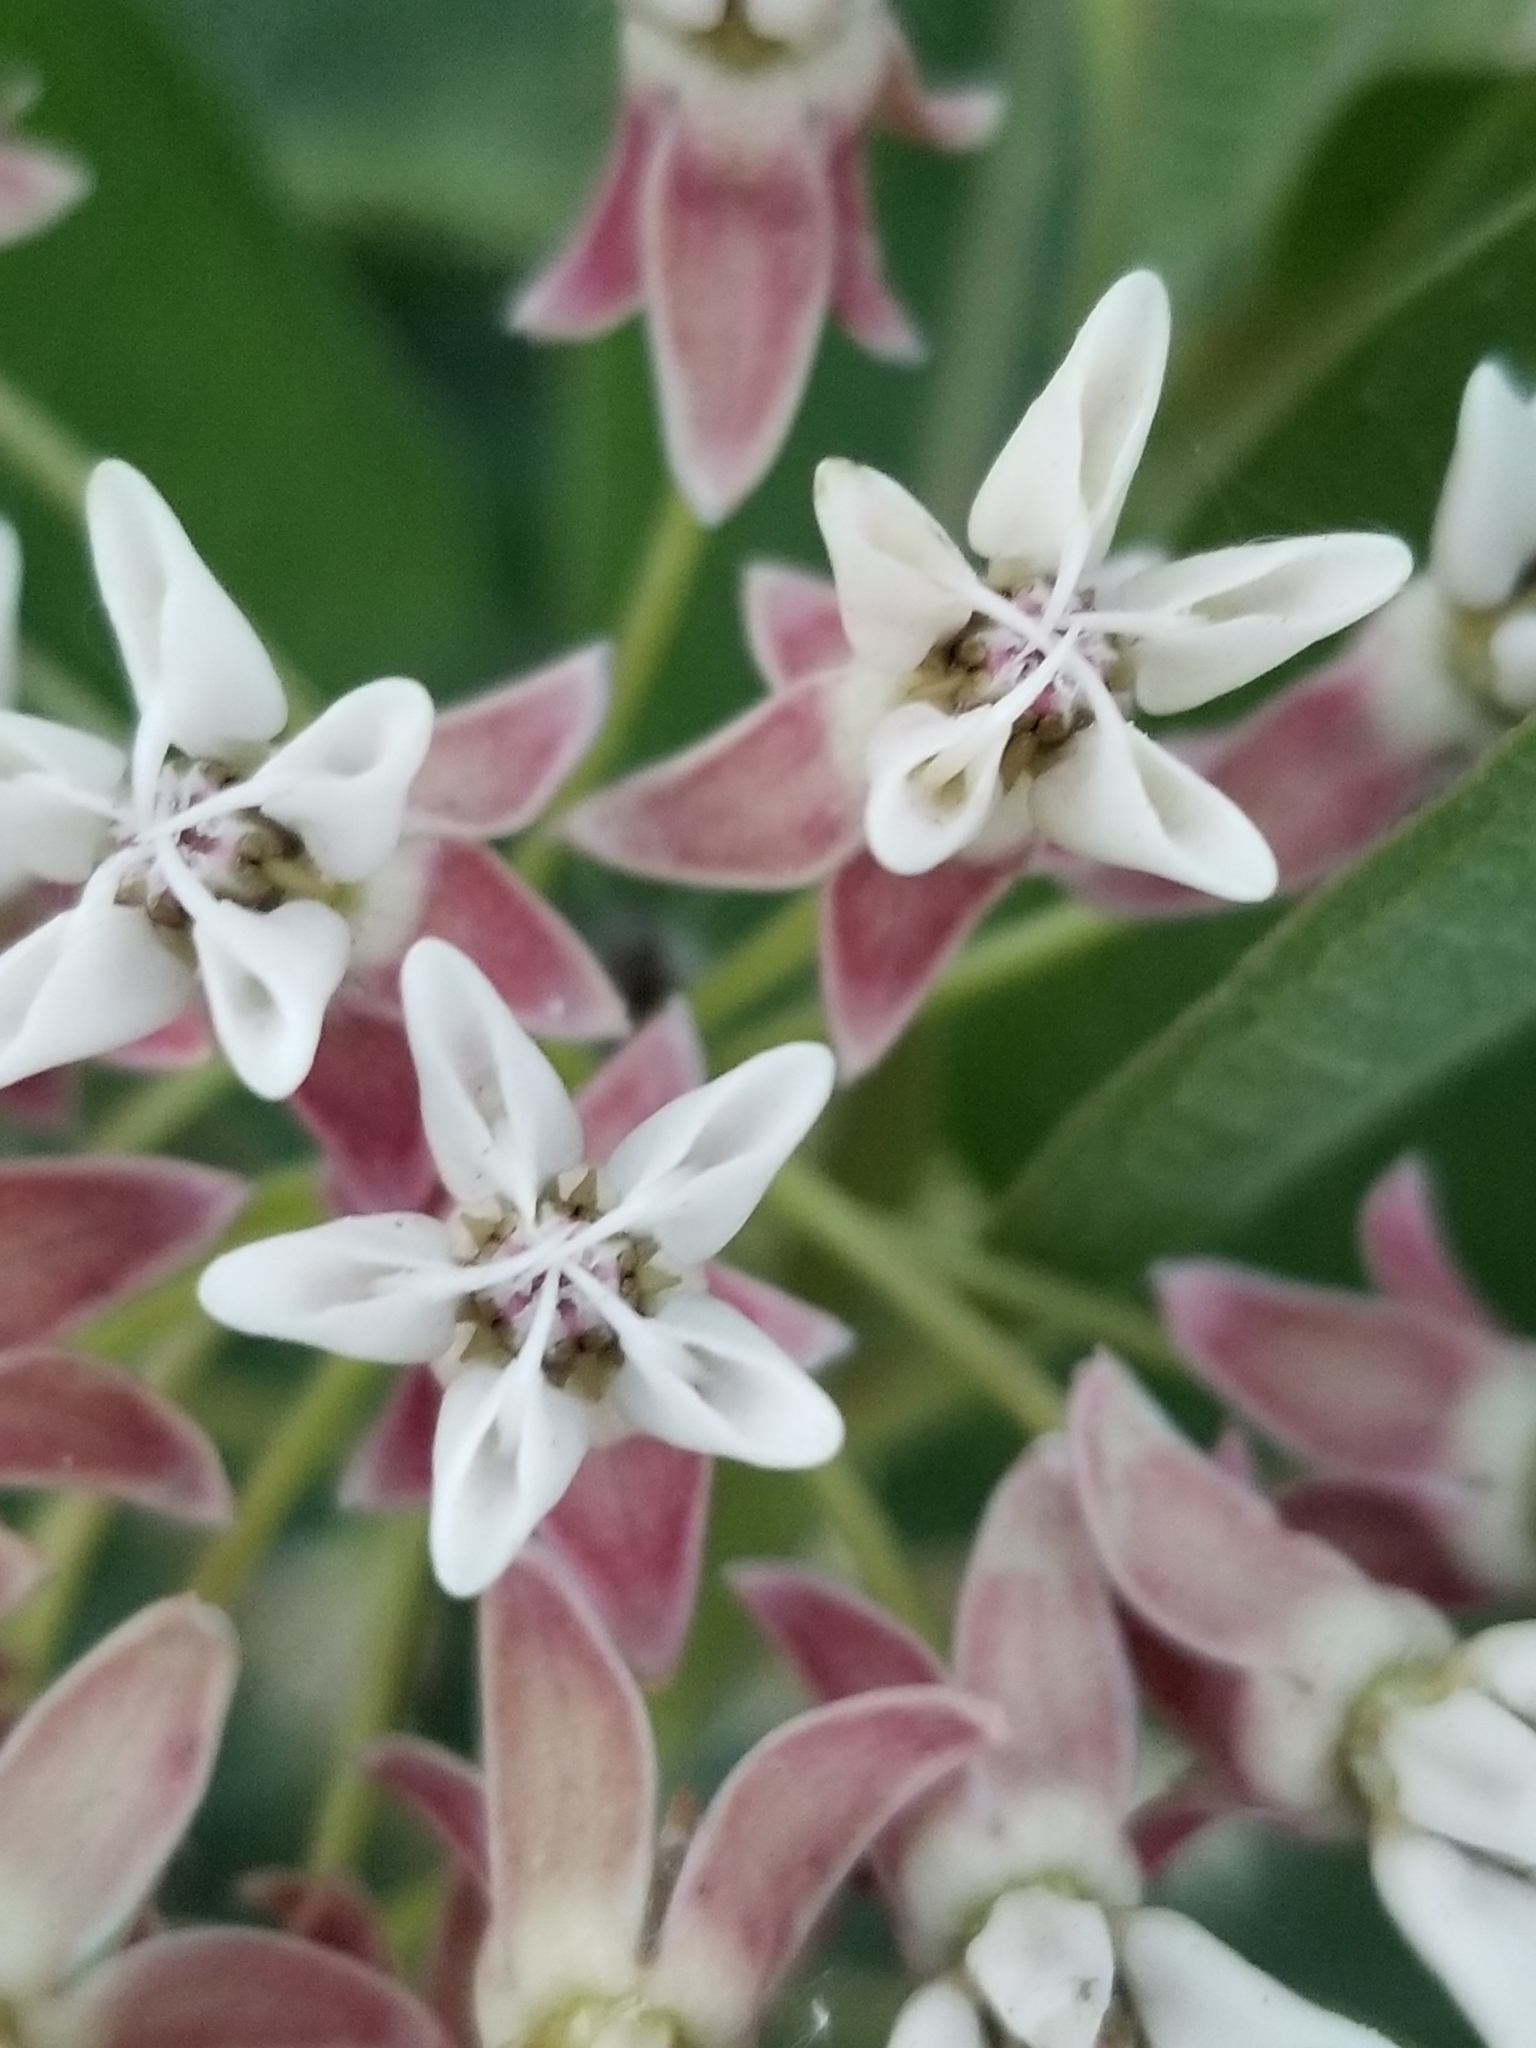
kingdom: Plantae
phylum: Tracheophyta
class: Magnoliopsida
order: Gentianales
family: Apocynaceae
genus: Asclepias
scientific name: Asclepias hallii
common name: Hall's milkweed
